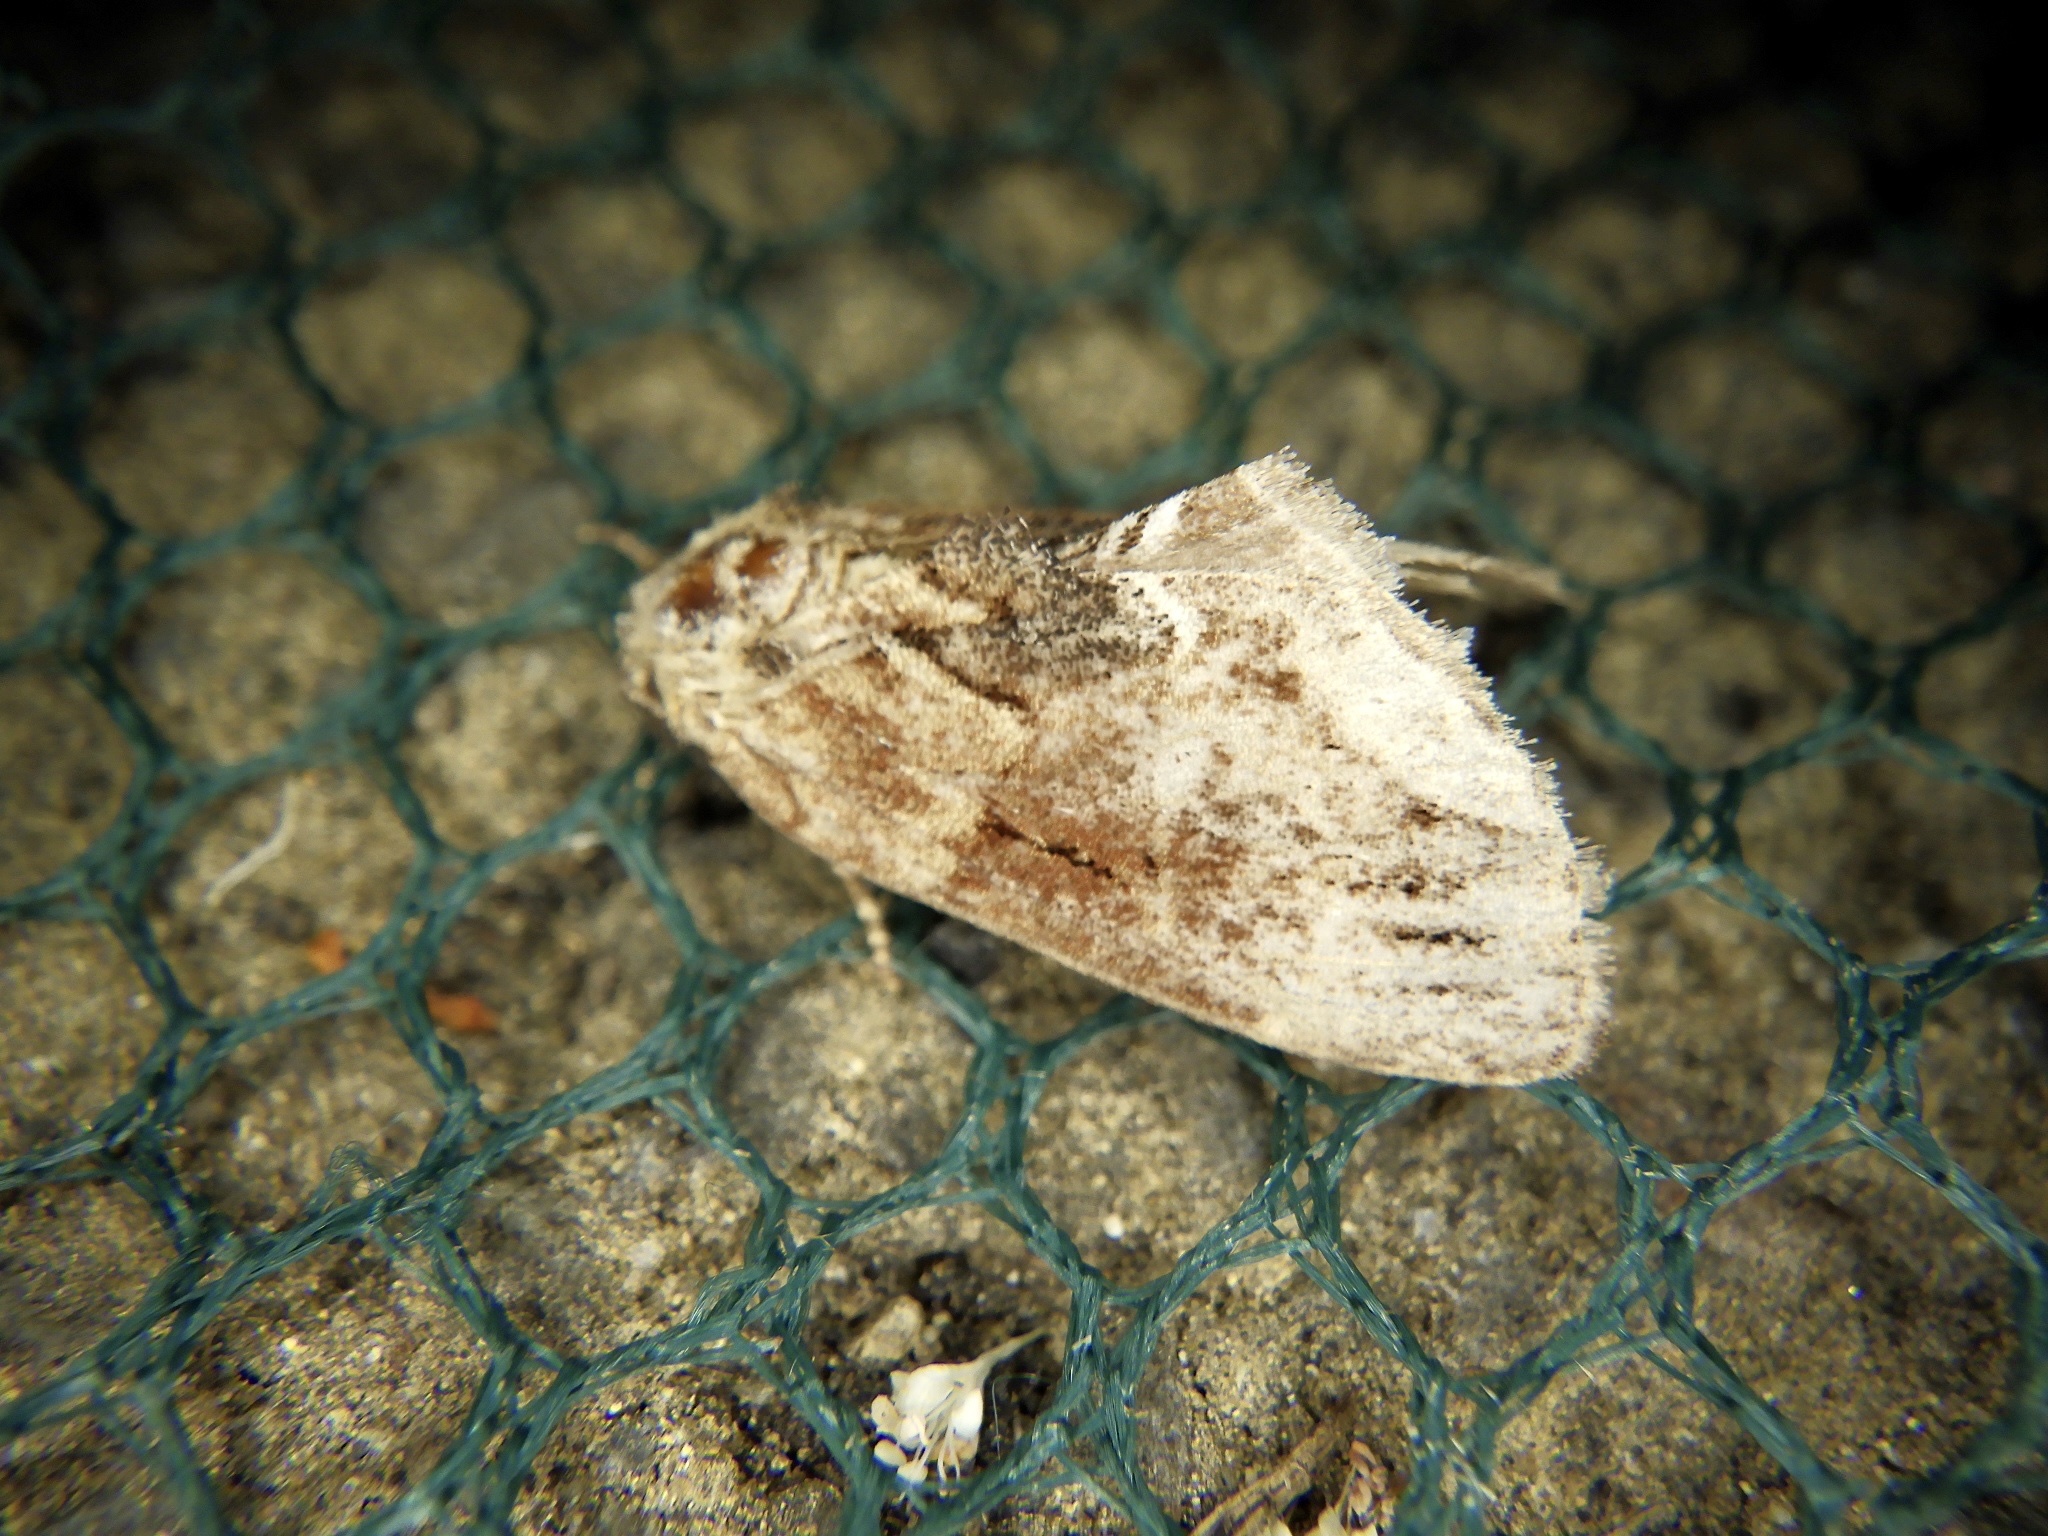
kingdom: Animalia
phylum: Arthropoda
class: Insecta
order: Lepidoptera
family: Notodontidae
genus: Lophontosia
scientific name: Lophontosia
